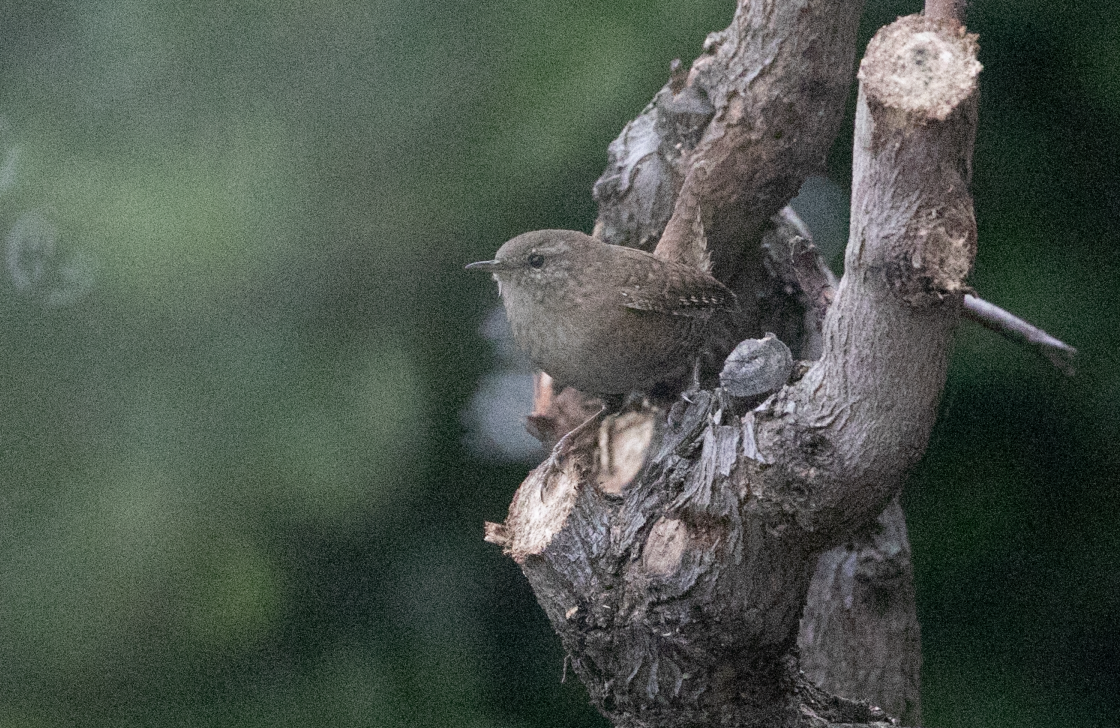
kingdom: Animalia
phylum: Chordata
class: Aves
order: Passeriformes
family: Troglodytidae
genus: Troglodytes
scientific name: Troglodytes troglodytes
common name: Eurasian wren
